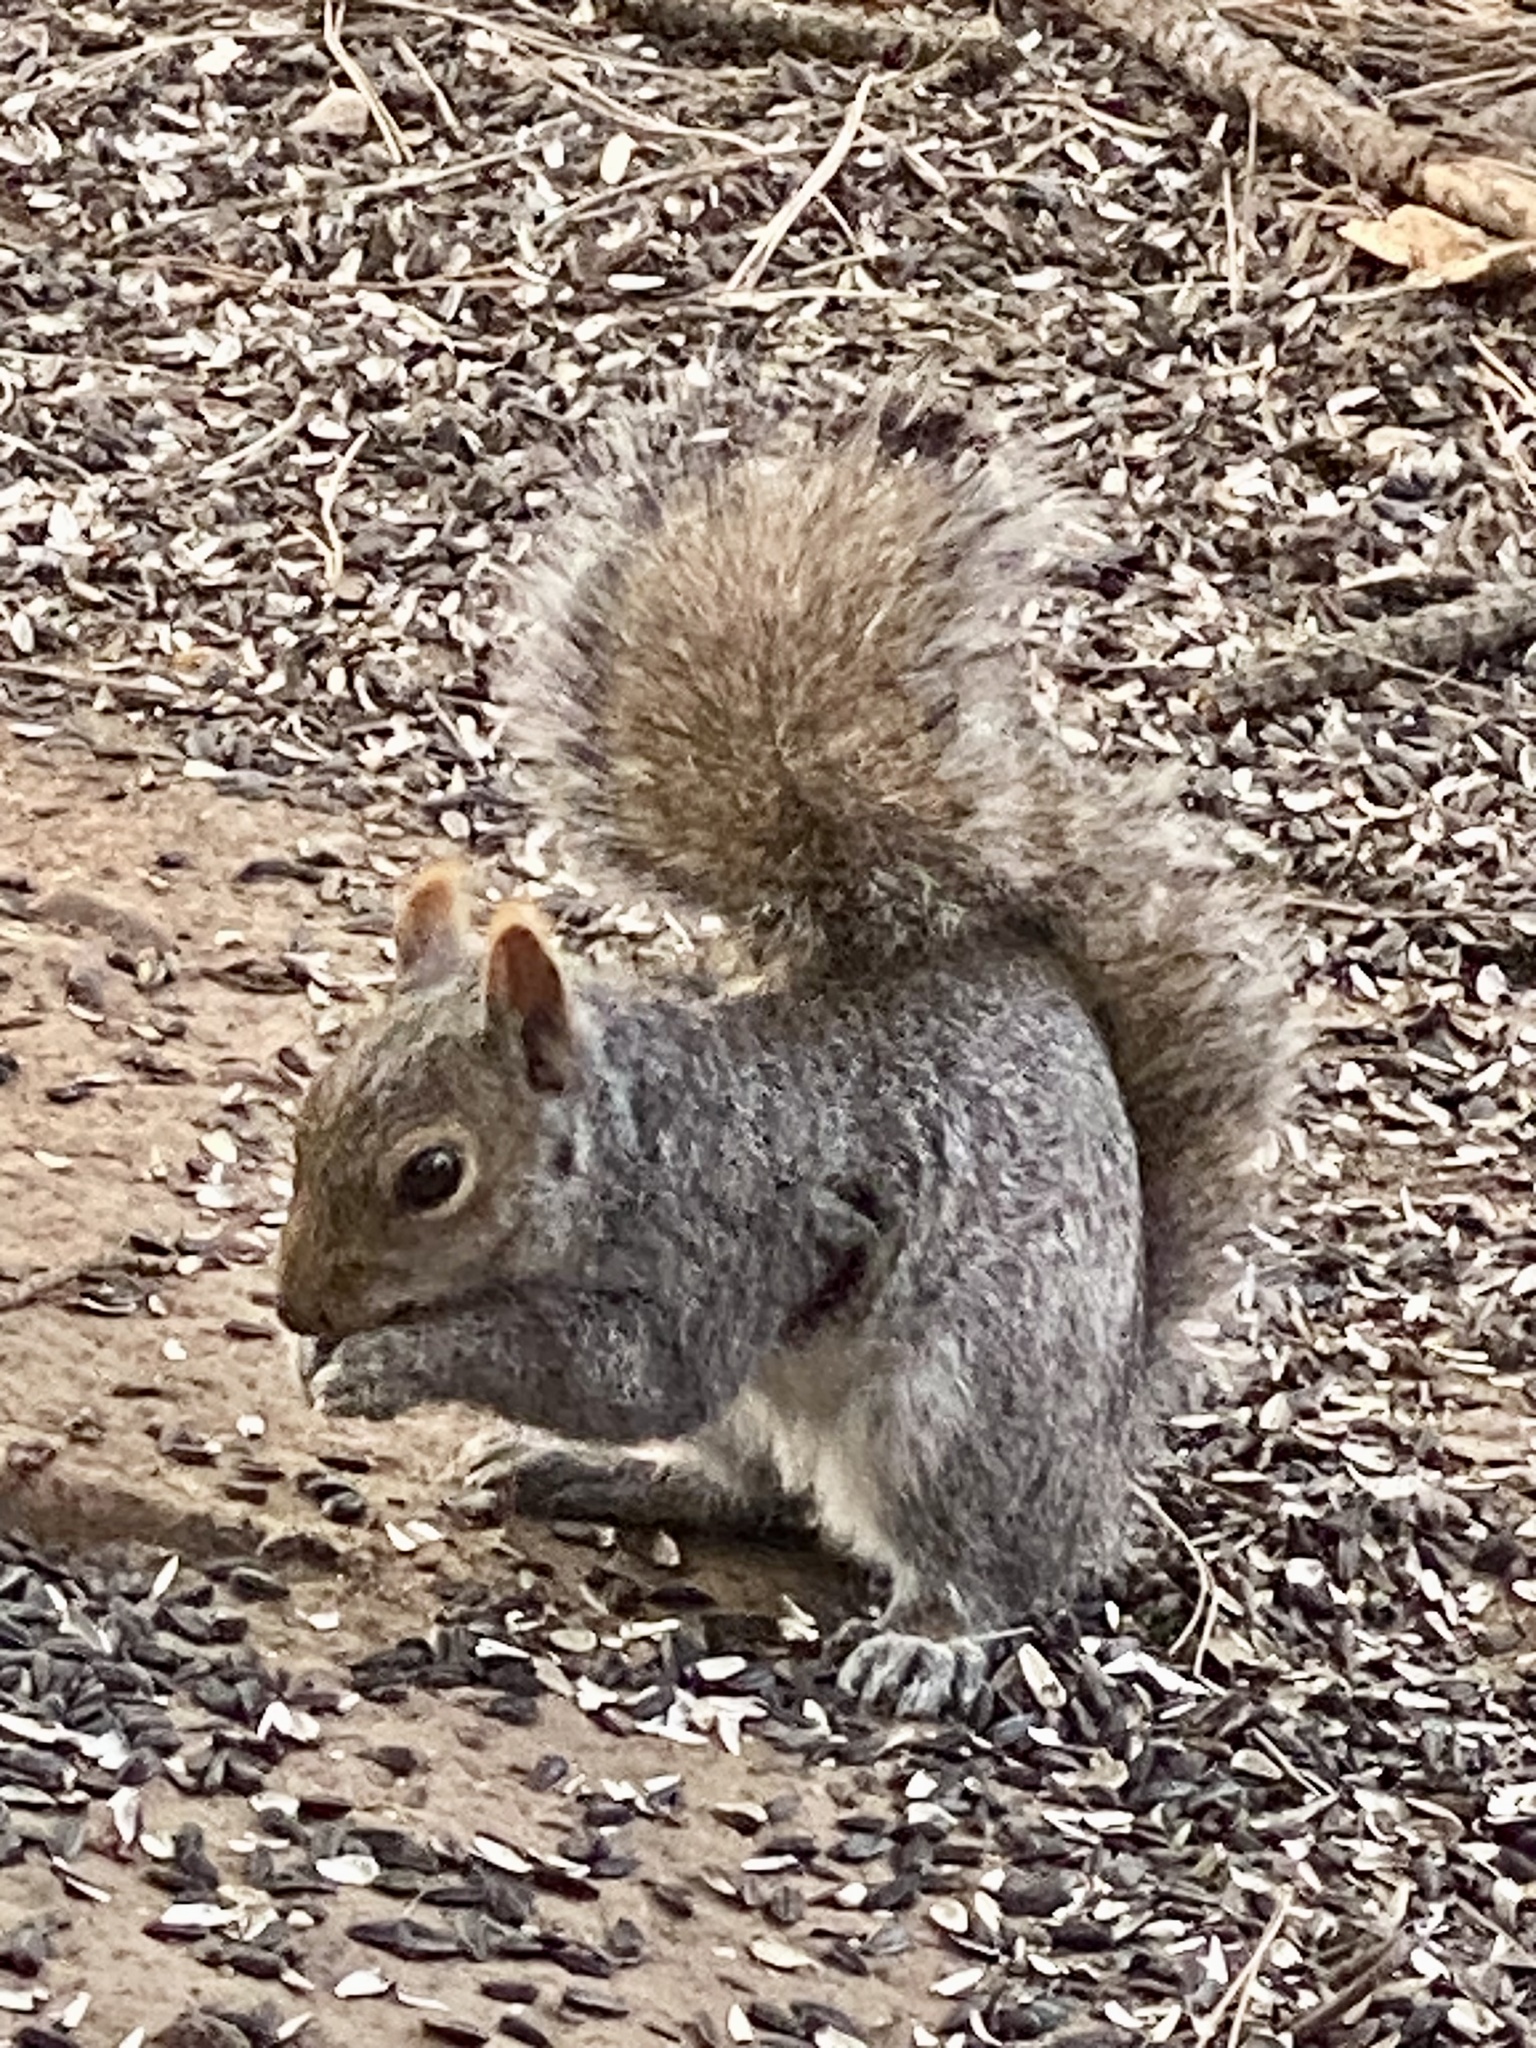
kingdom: Animalia
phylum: Chordata
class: Mammalia
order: Rodentia
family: Sciuridae
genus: Sciurus
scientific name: Sciurus carolinensis
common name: Eastern gray squirrel
